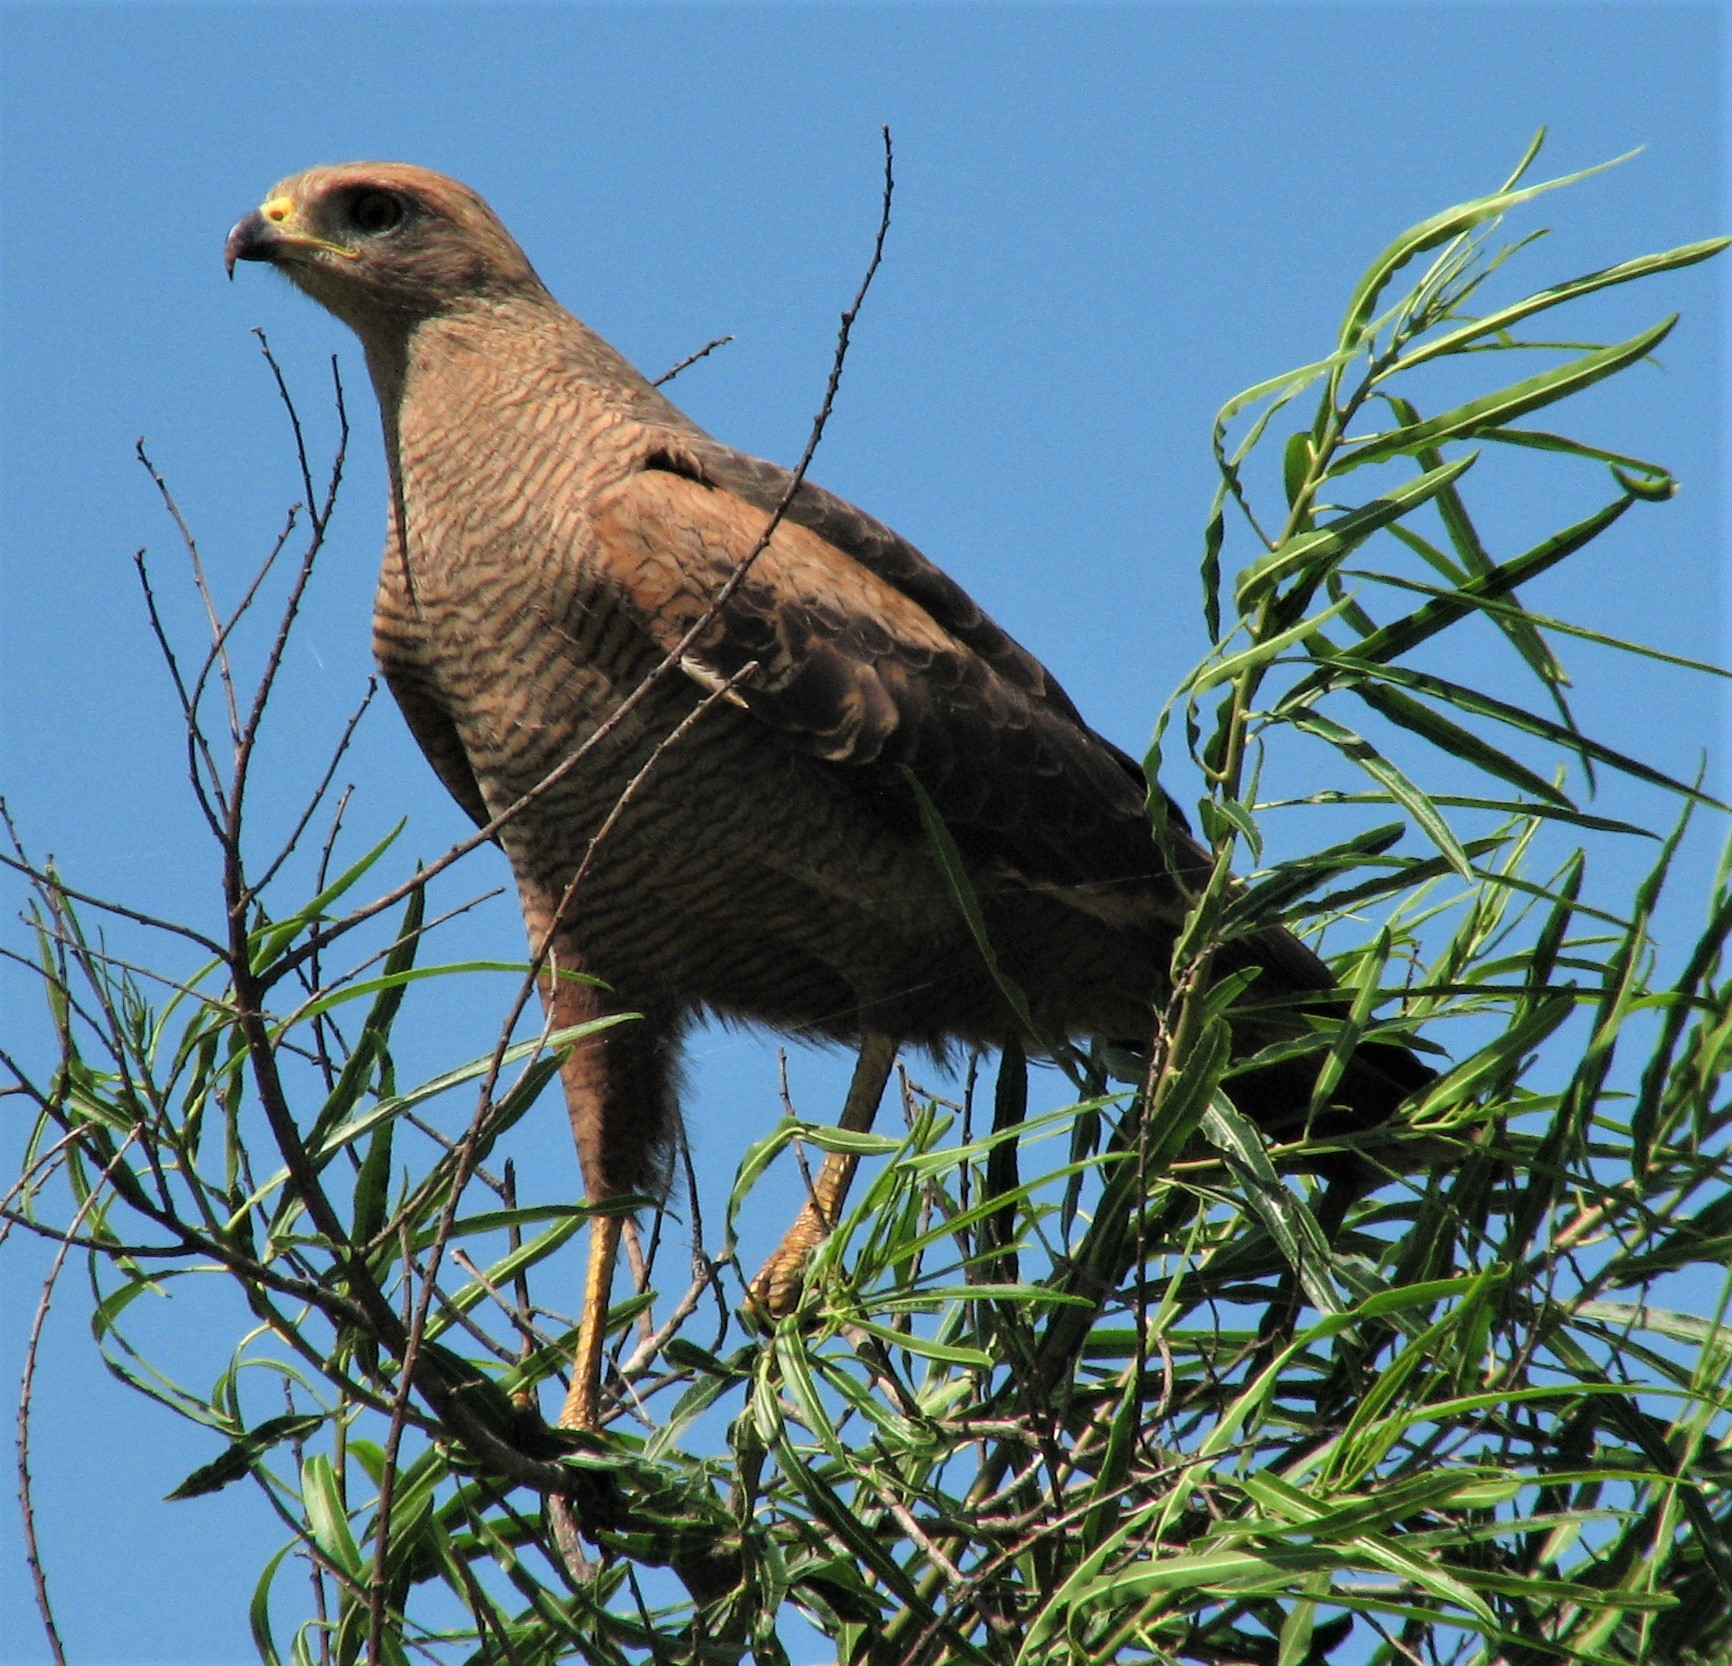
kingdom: Animalia
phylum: Chordata
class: Aves
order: Accipitriformes
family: Accipitridae
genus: Buteogallus
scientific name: Buteogallus meridionalis
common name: Savanna hawk
